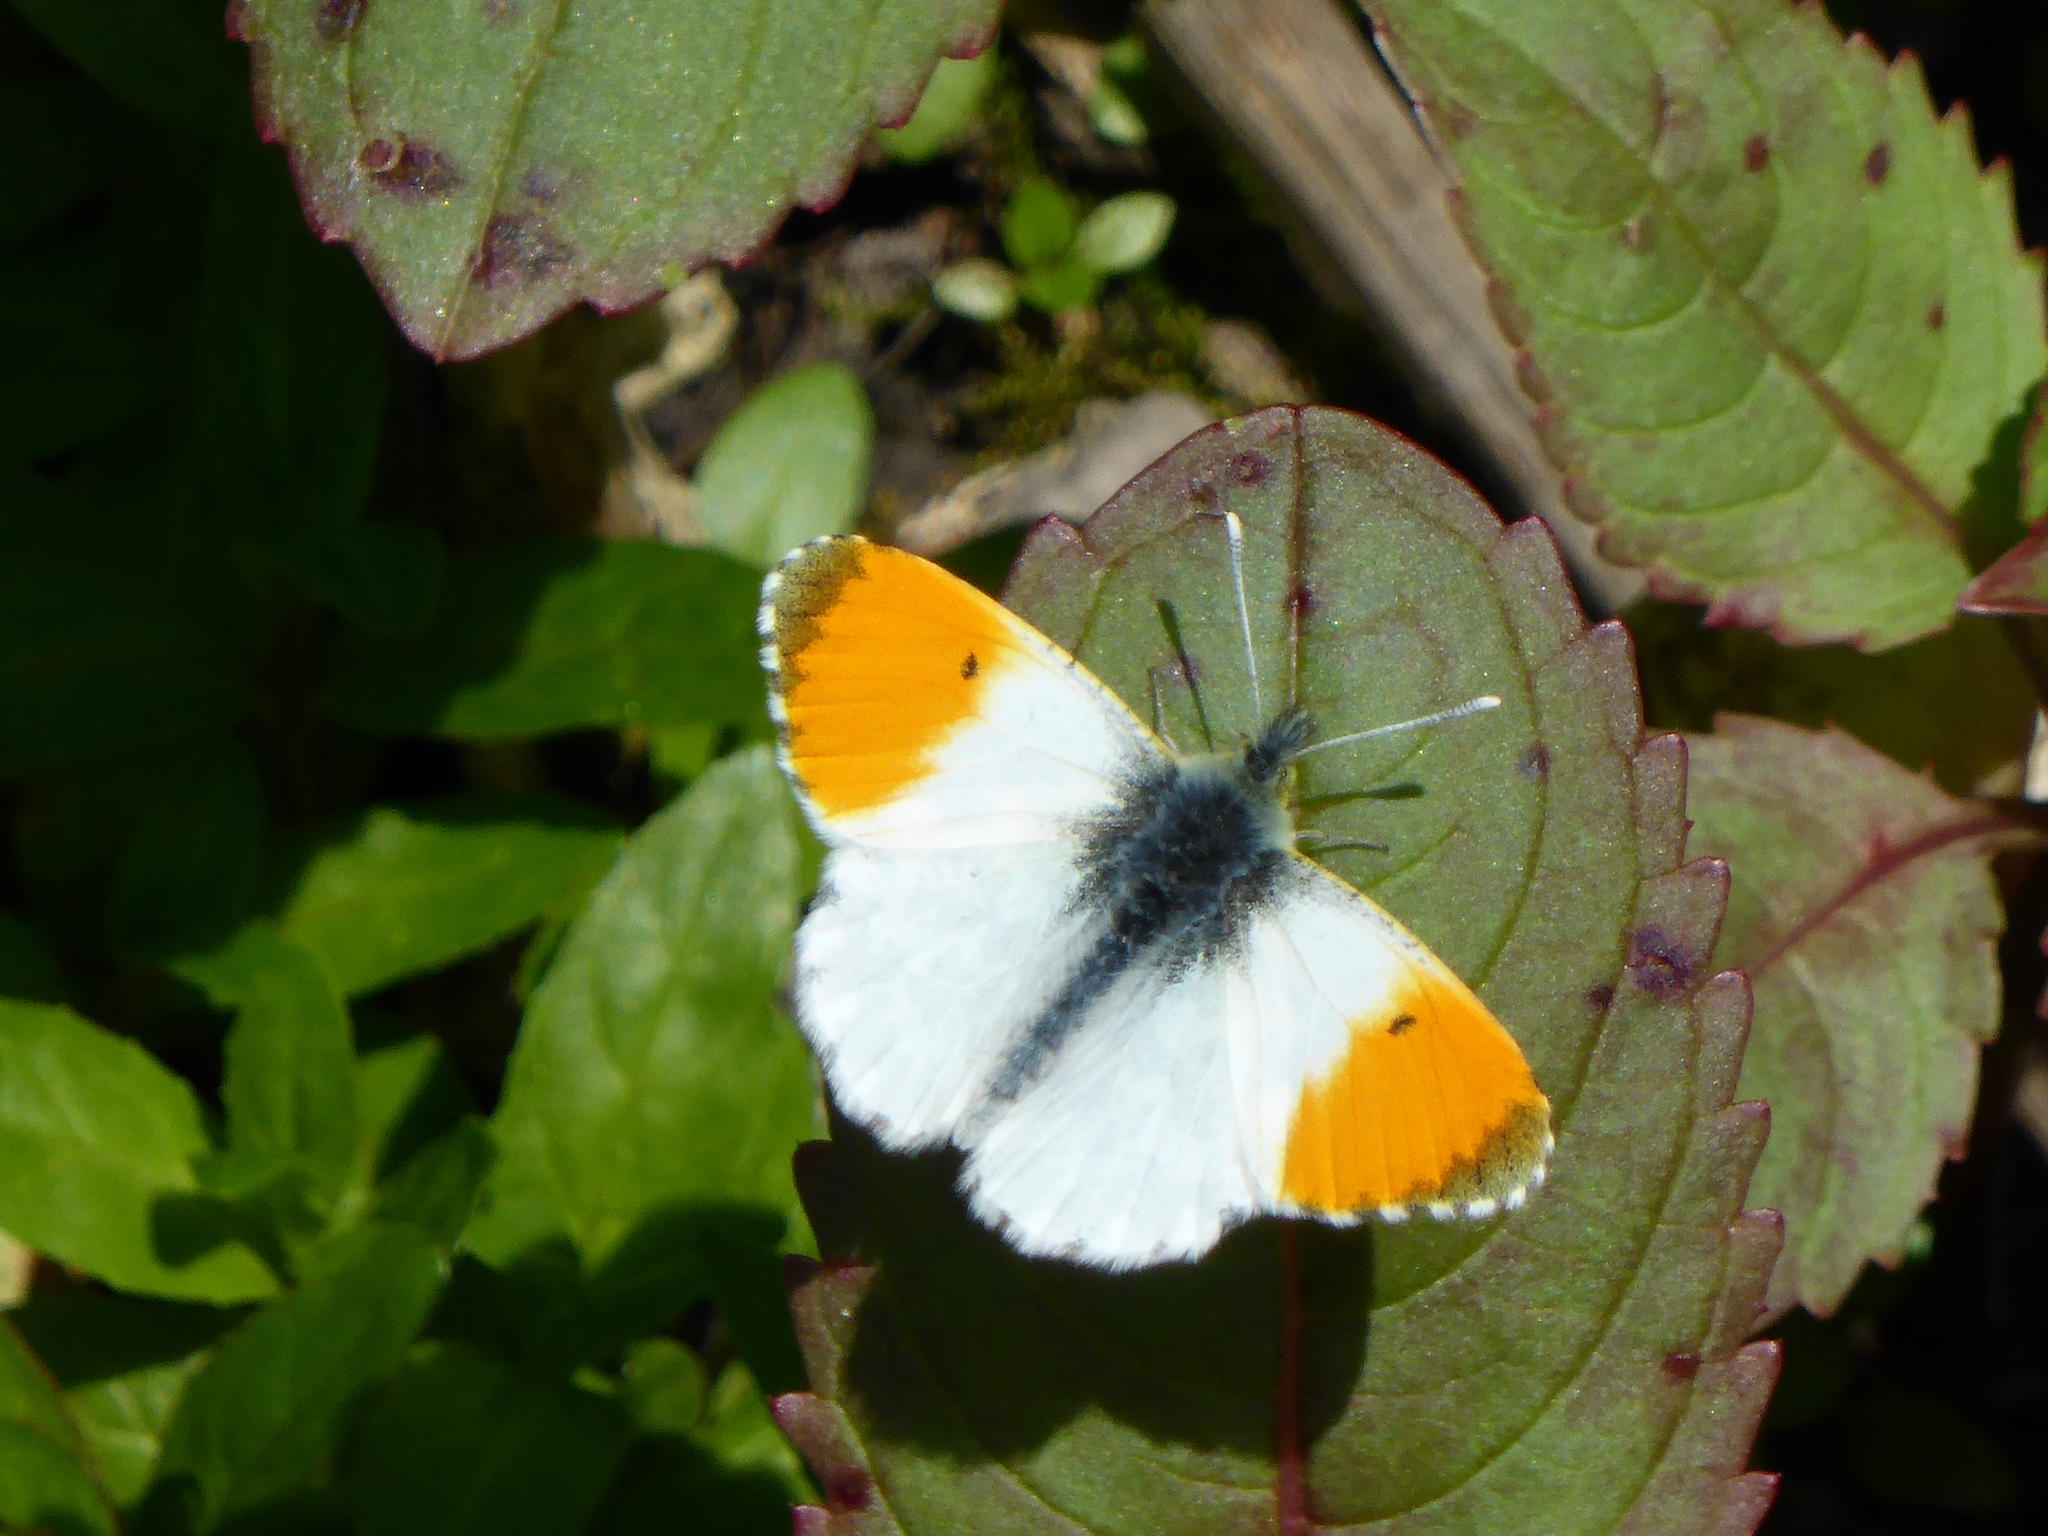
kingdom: Animalia
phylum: Arthropoda
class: Insecta
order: Lepidoptera
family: Pieridae
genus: Anthocharis
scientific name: Anthocharis cardamines
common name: Orange-tip
